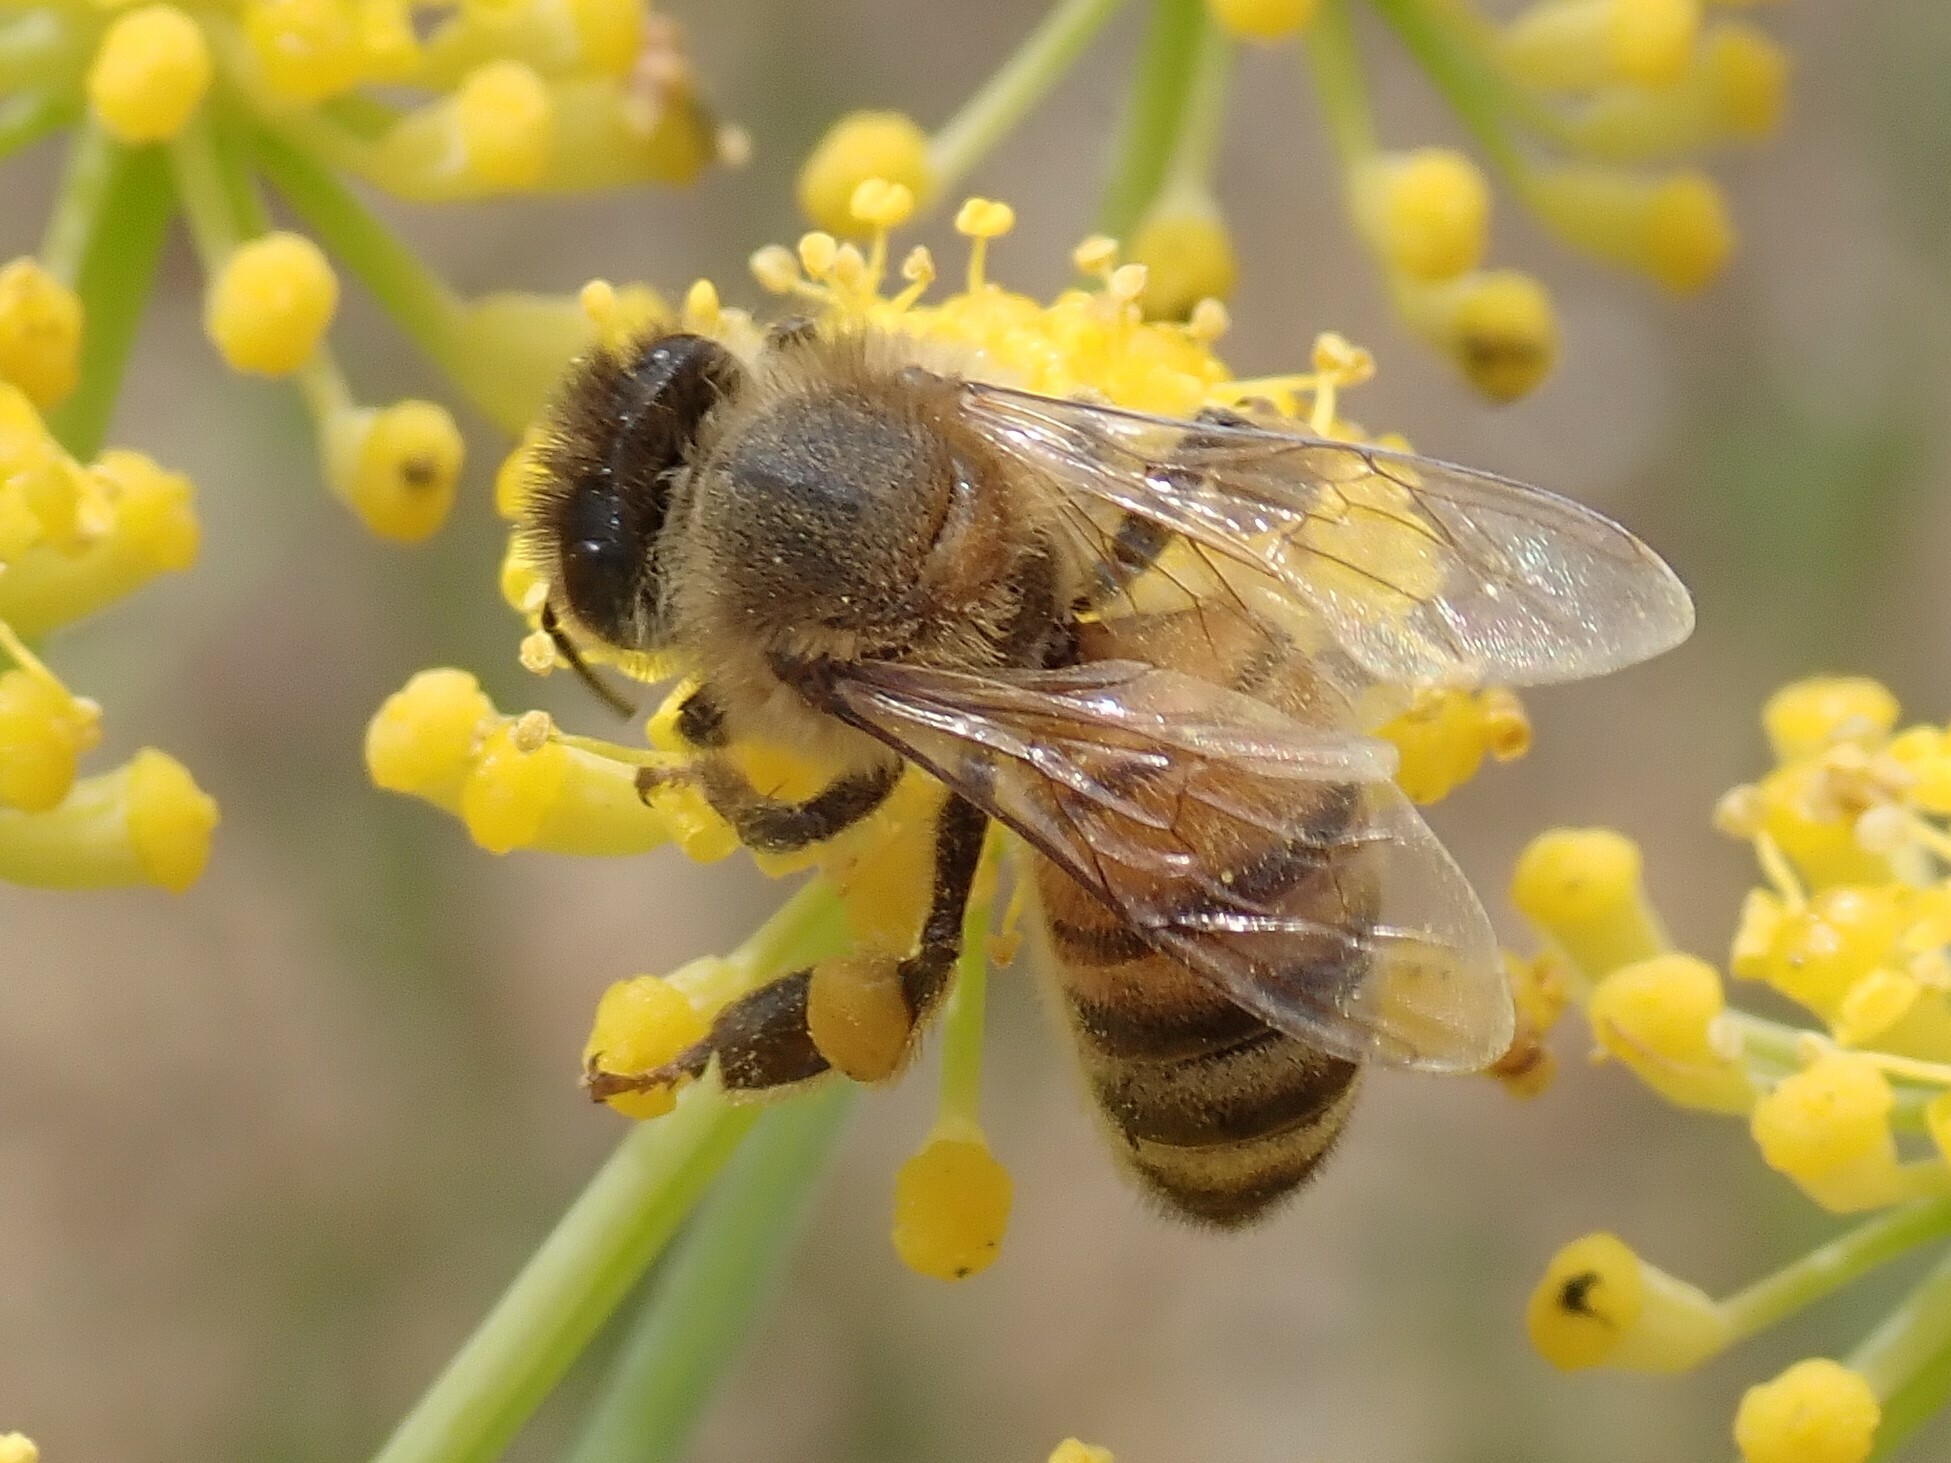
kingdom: Animalia
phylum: Arthropoda
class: Insecta
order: Hymenoptera
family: Apidae
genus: Apis
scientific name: Apis mellifera
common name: Honey bee
